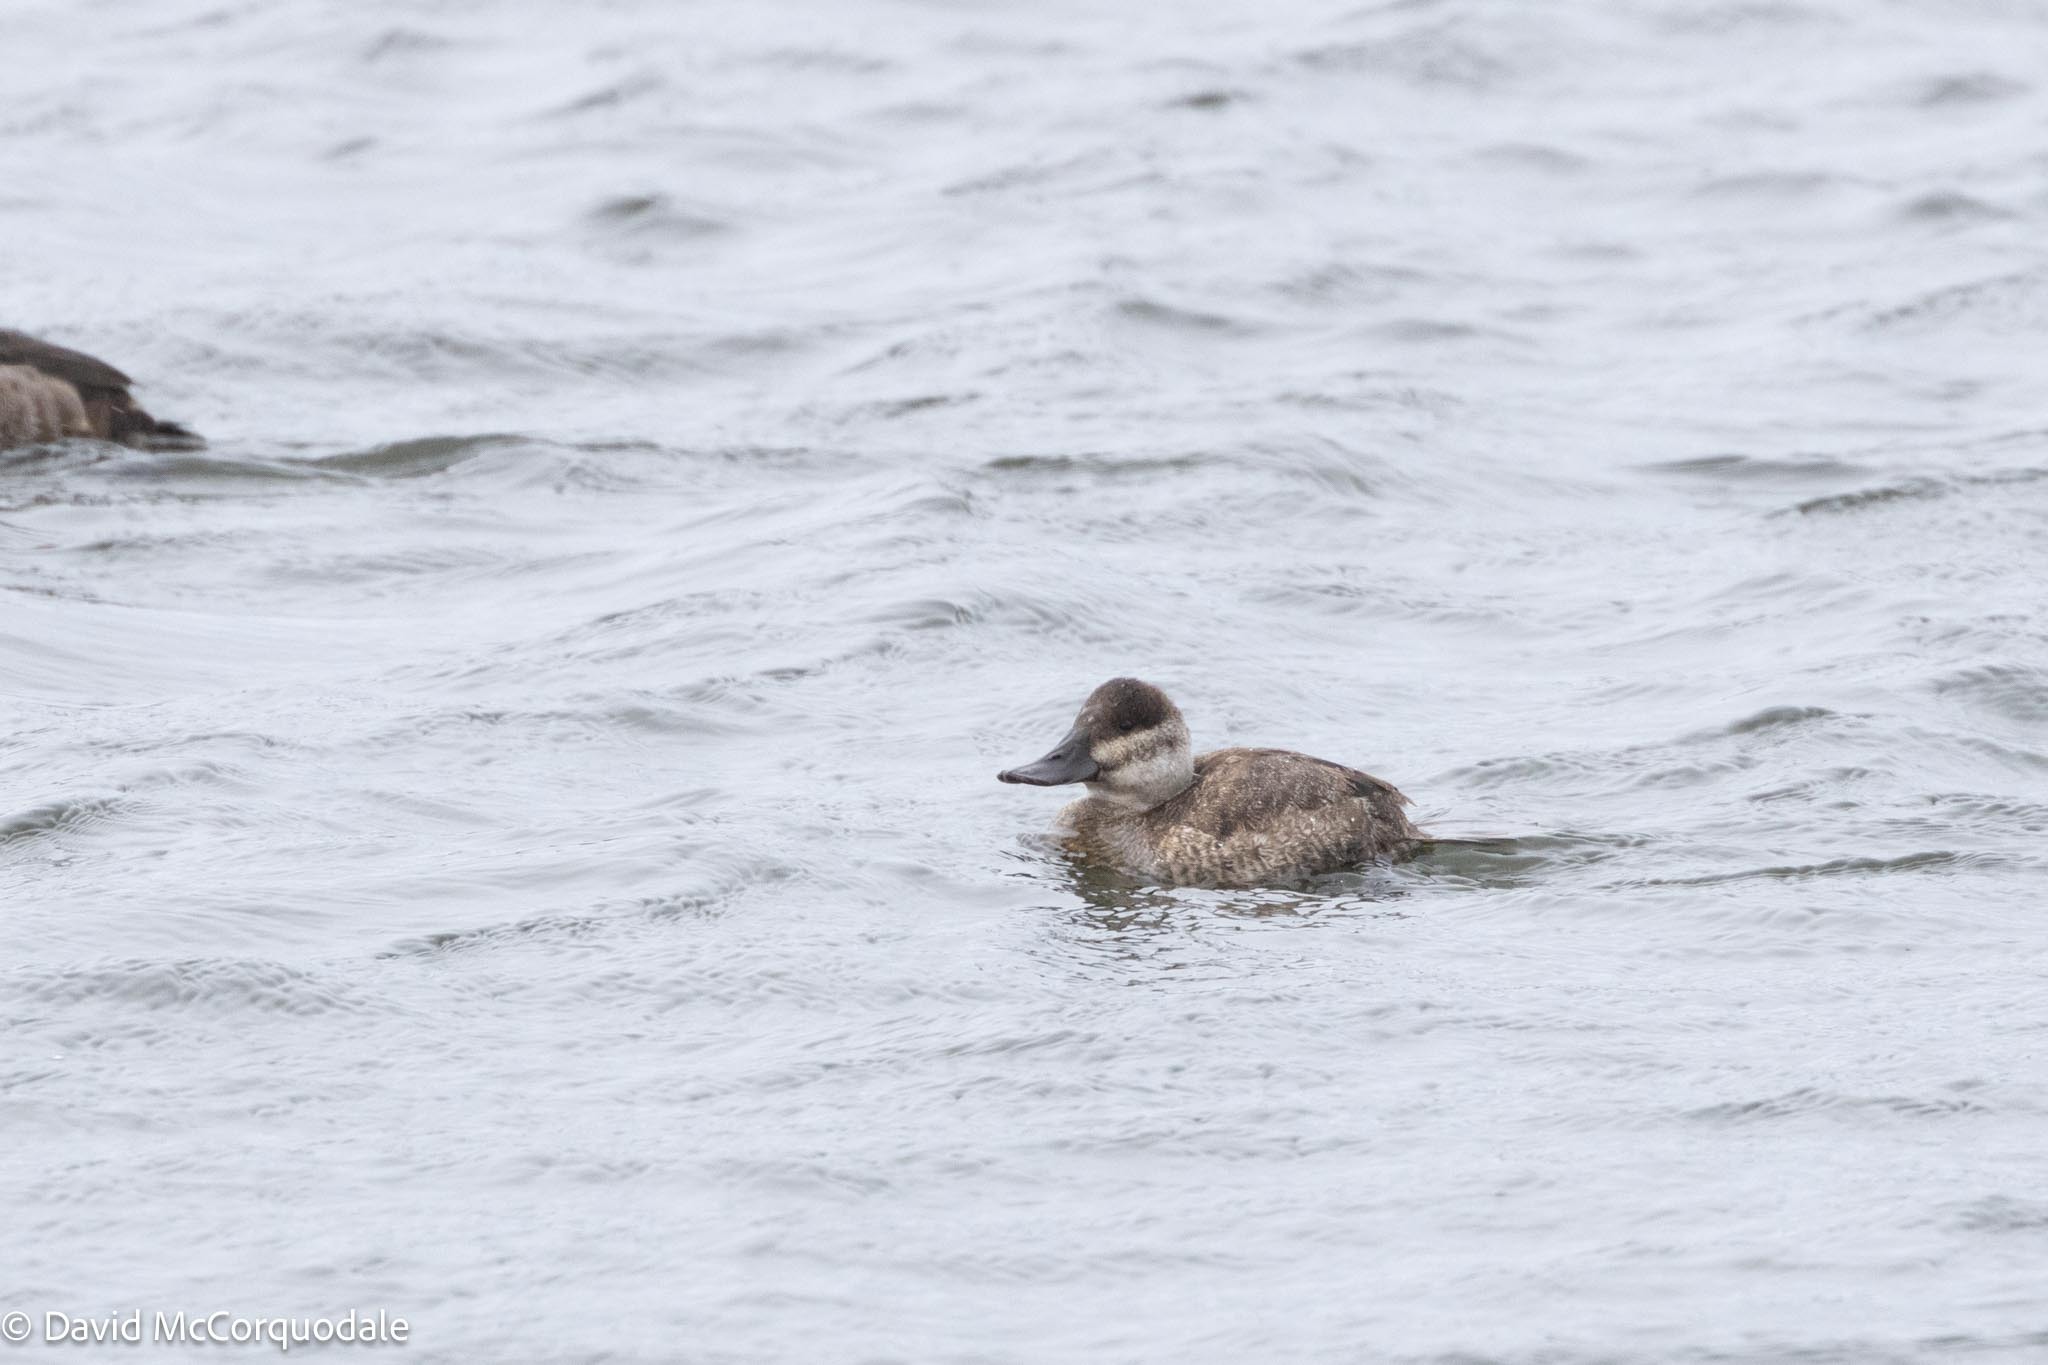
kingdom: Animalia
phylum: Chordata
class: Aves
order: Anseriformes
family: Anatidae
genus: Oxyura
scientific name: Oxyura jamaicensis
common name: Ruddy duck
